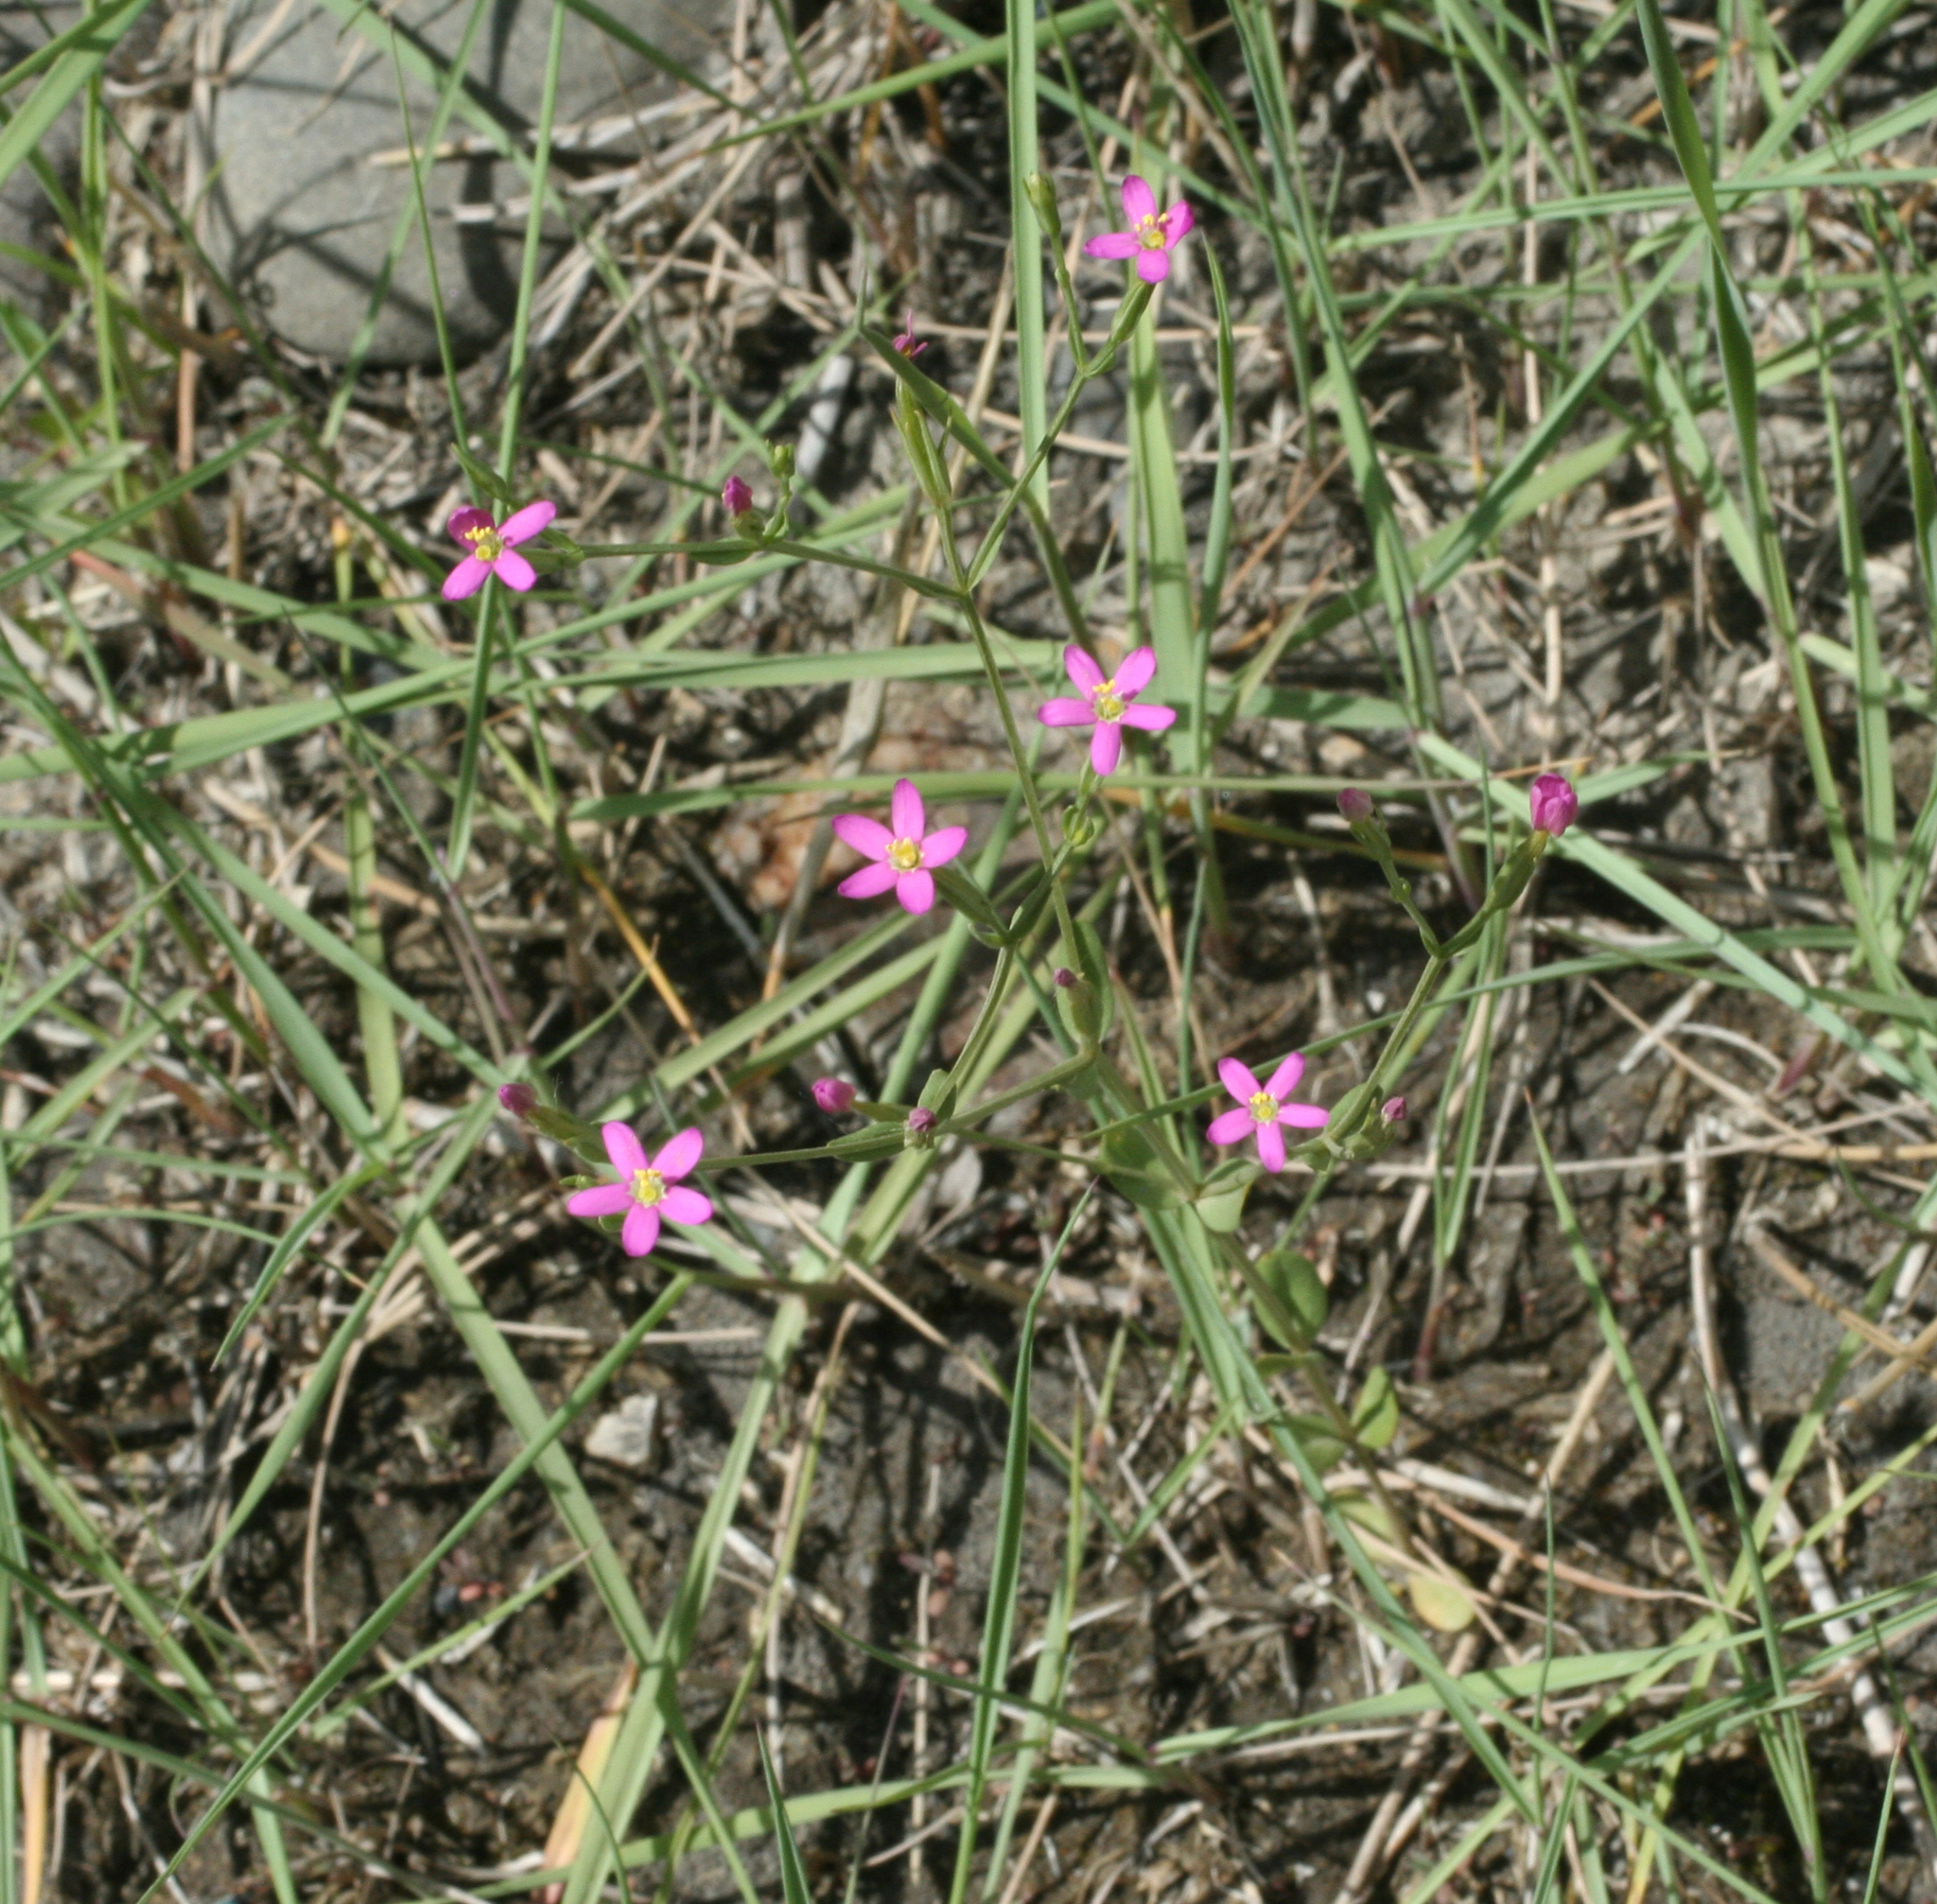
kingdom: Plantae
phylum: Tracheophyta
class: Magnoliopsida
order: Gentianales
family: Gentianaceae
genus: Centaurium
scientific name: Centaurium pulchellum
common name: Lesser centaury
